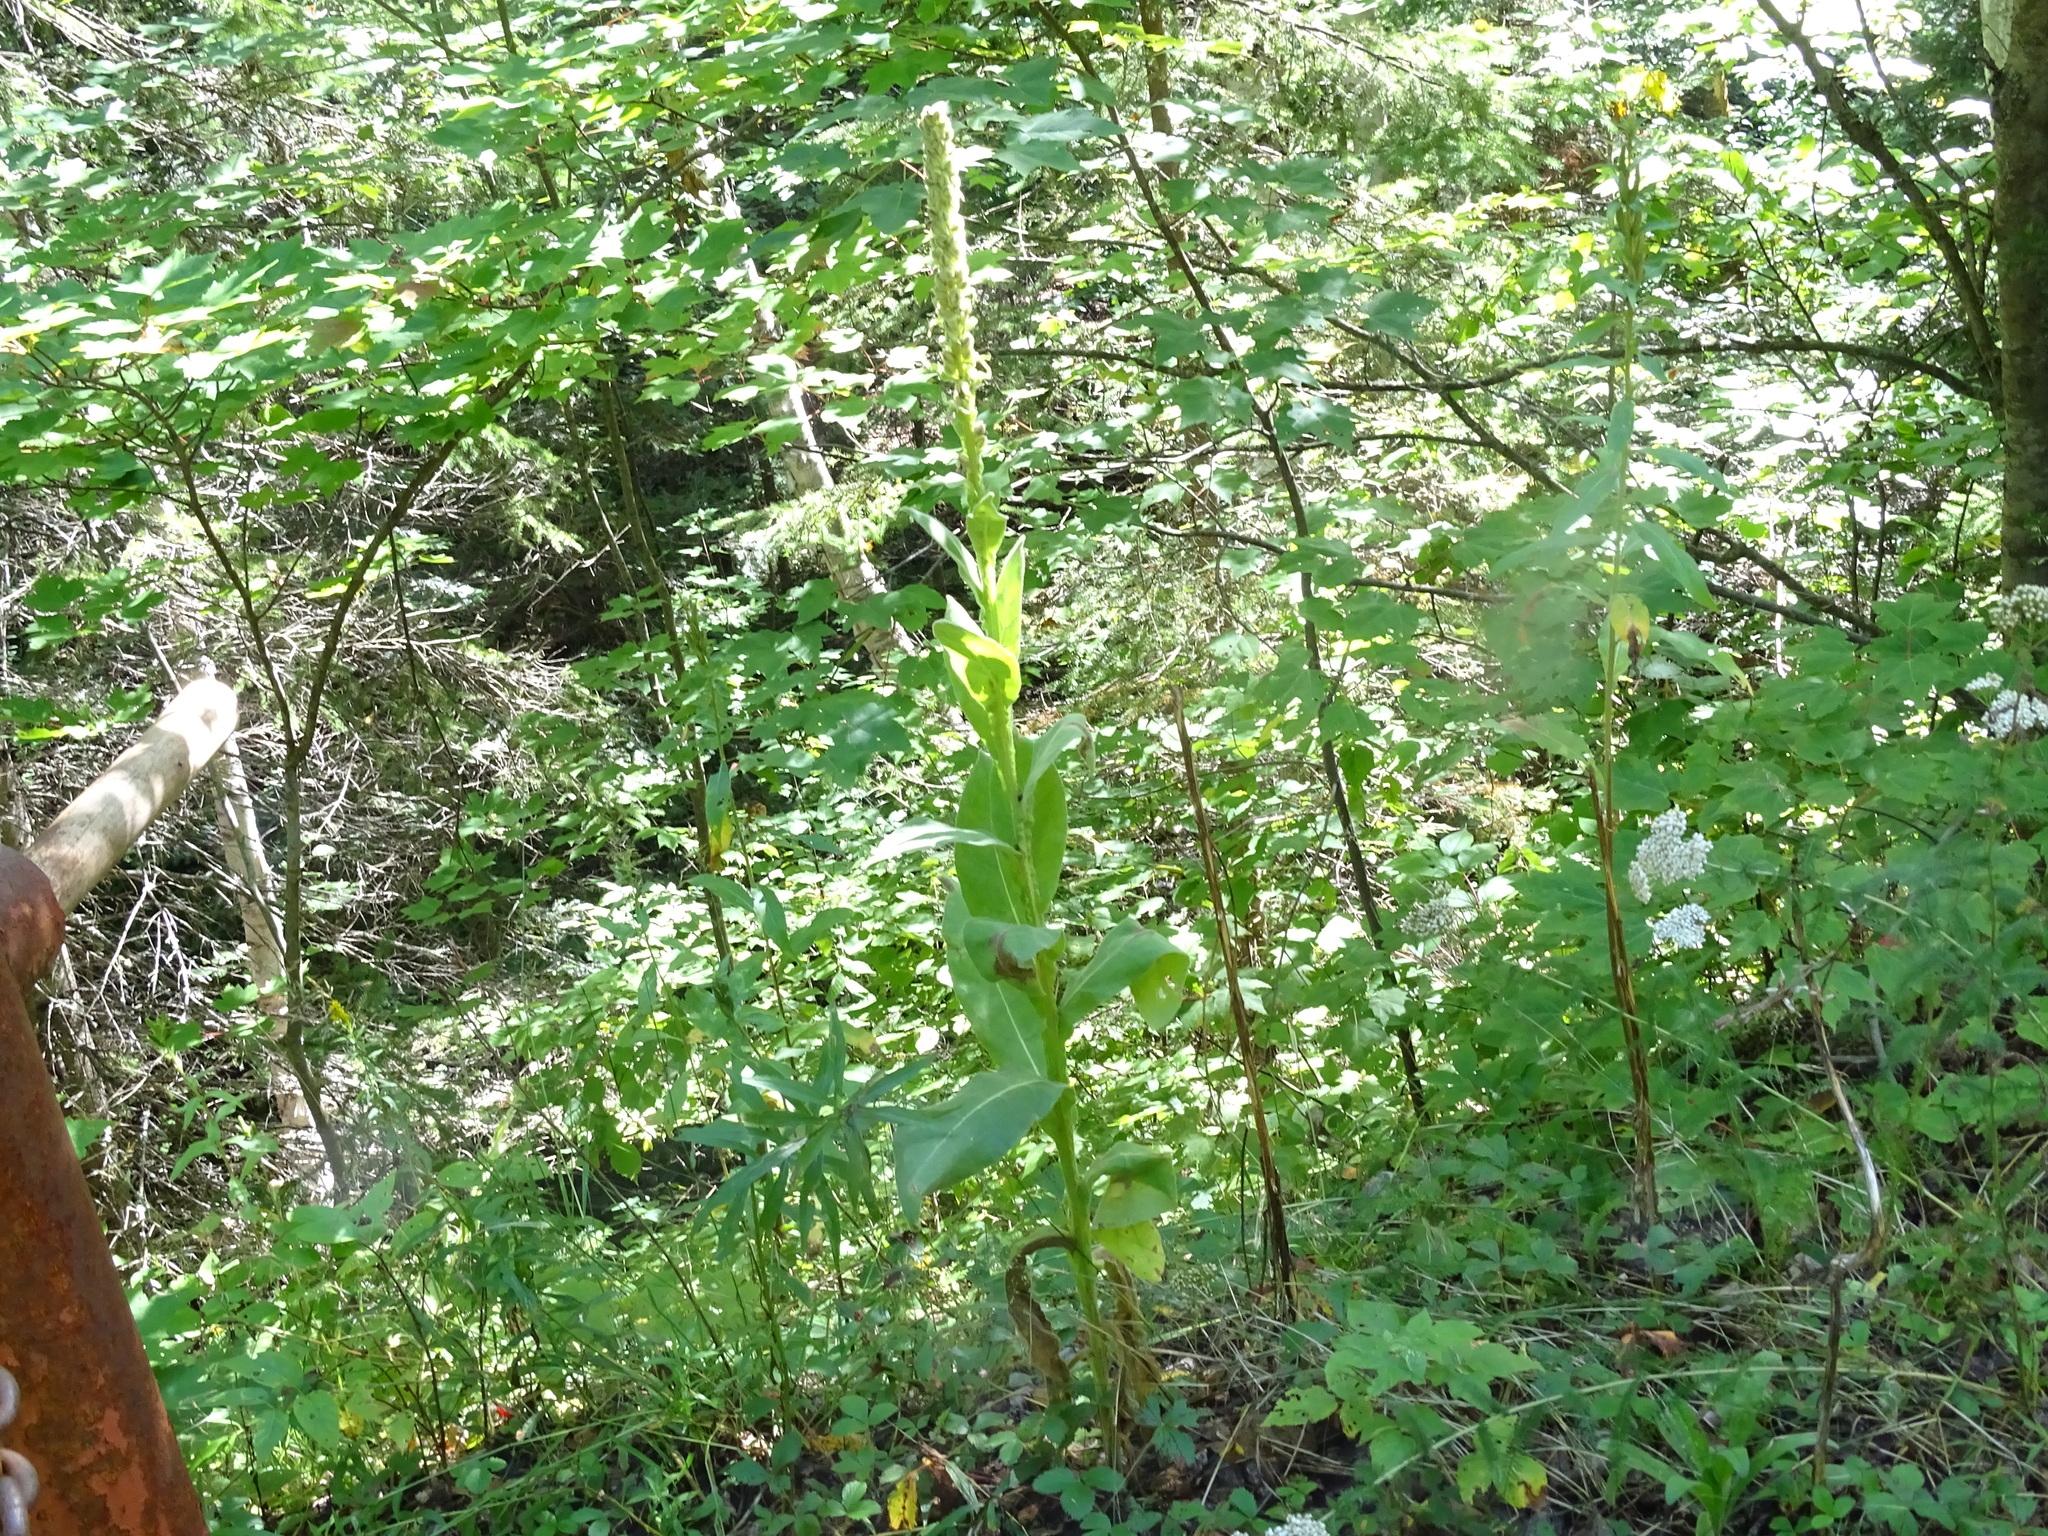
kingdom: Plantae
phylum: Tracheophyta
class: Magnoliopsida
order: Lamiales
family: Scrophulariaceae
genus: Verbascum
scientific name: Verbascum thapsus
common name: Common mullein
